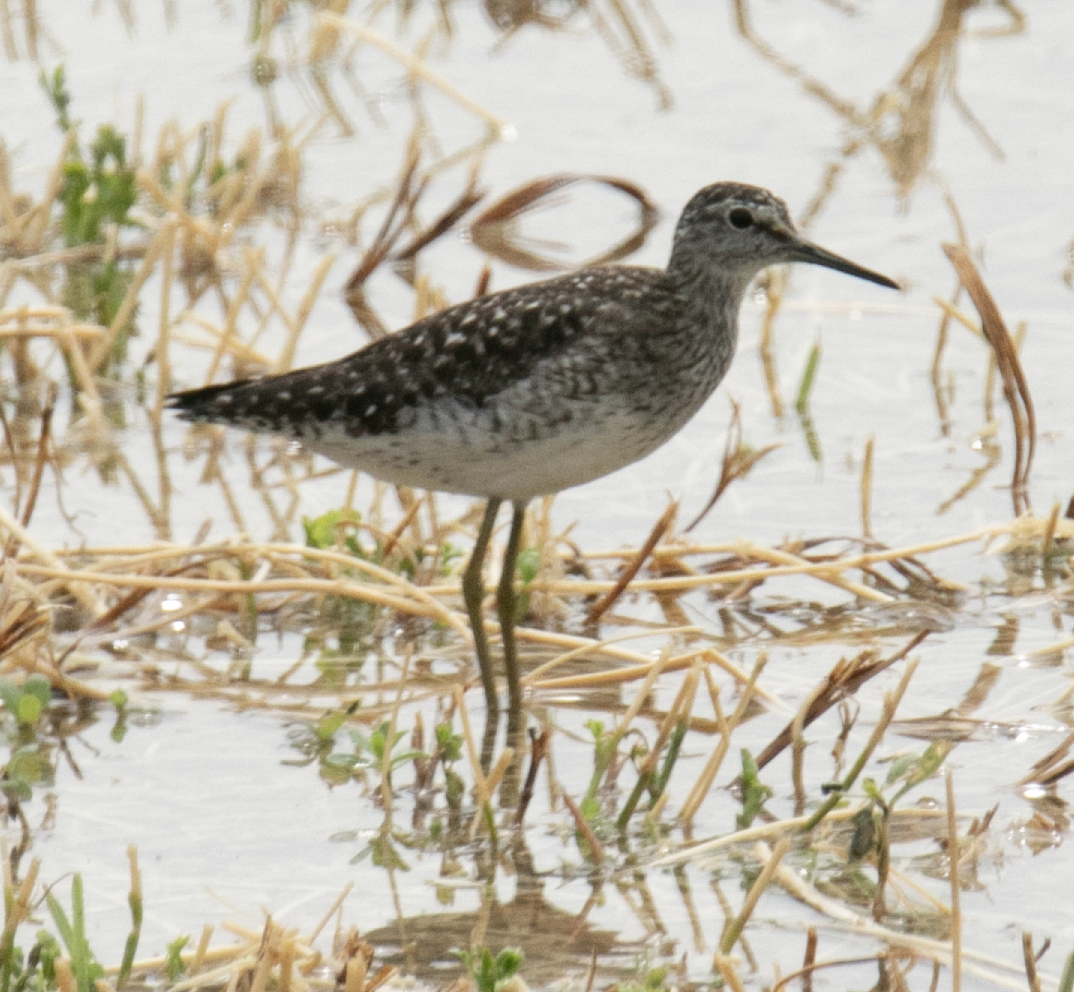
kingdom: Animalia
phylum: Chordata
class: Aves
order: Charadriiformes
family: Scolopacidae
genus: Tringa
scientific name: Tringa glareola
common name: Wood sandpiper
